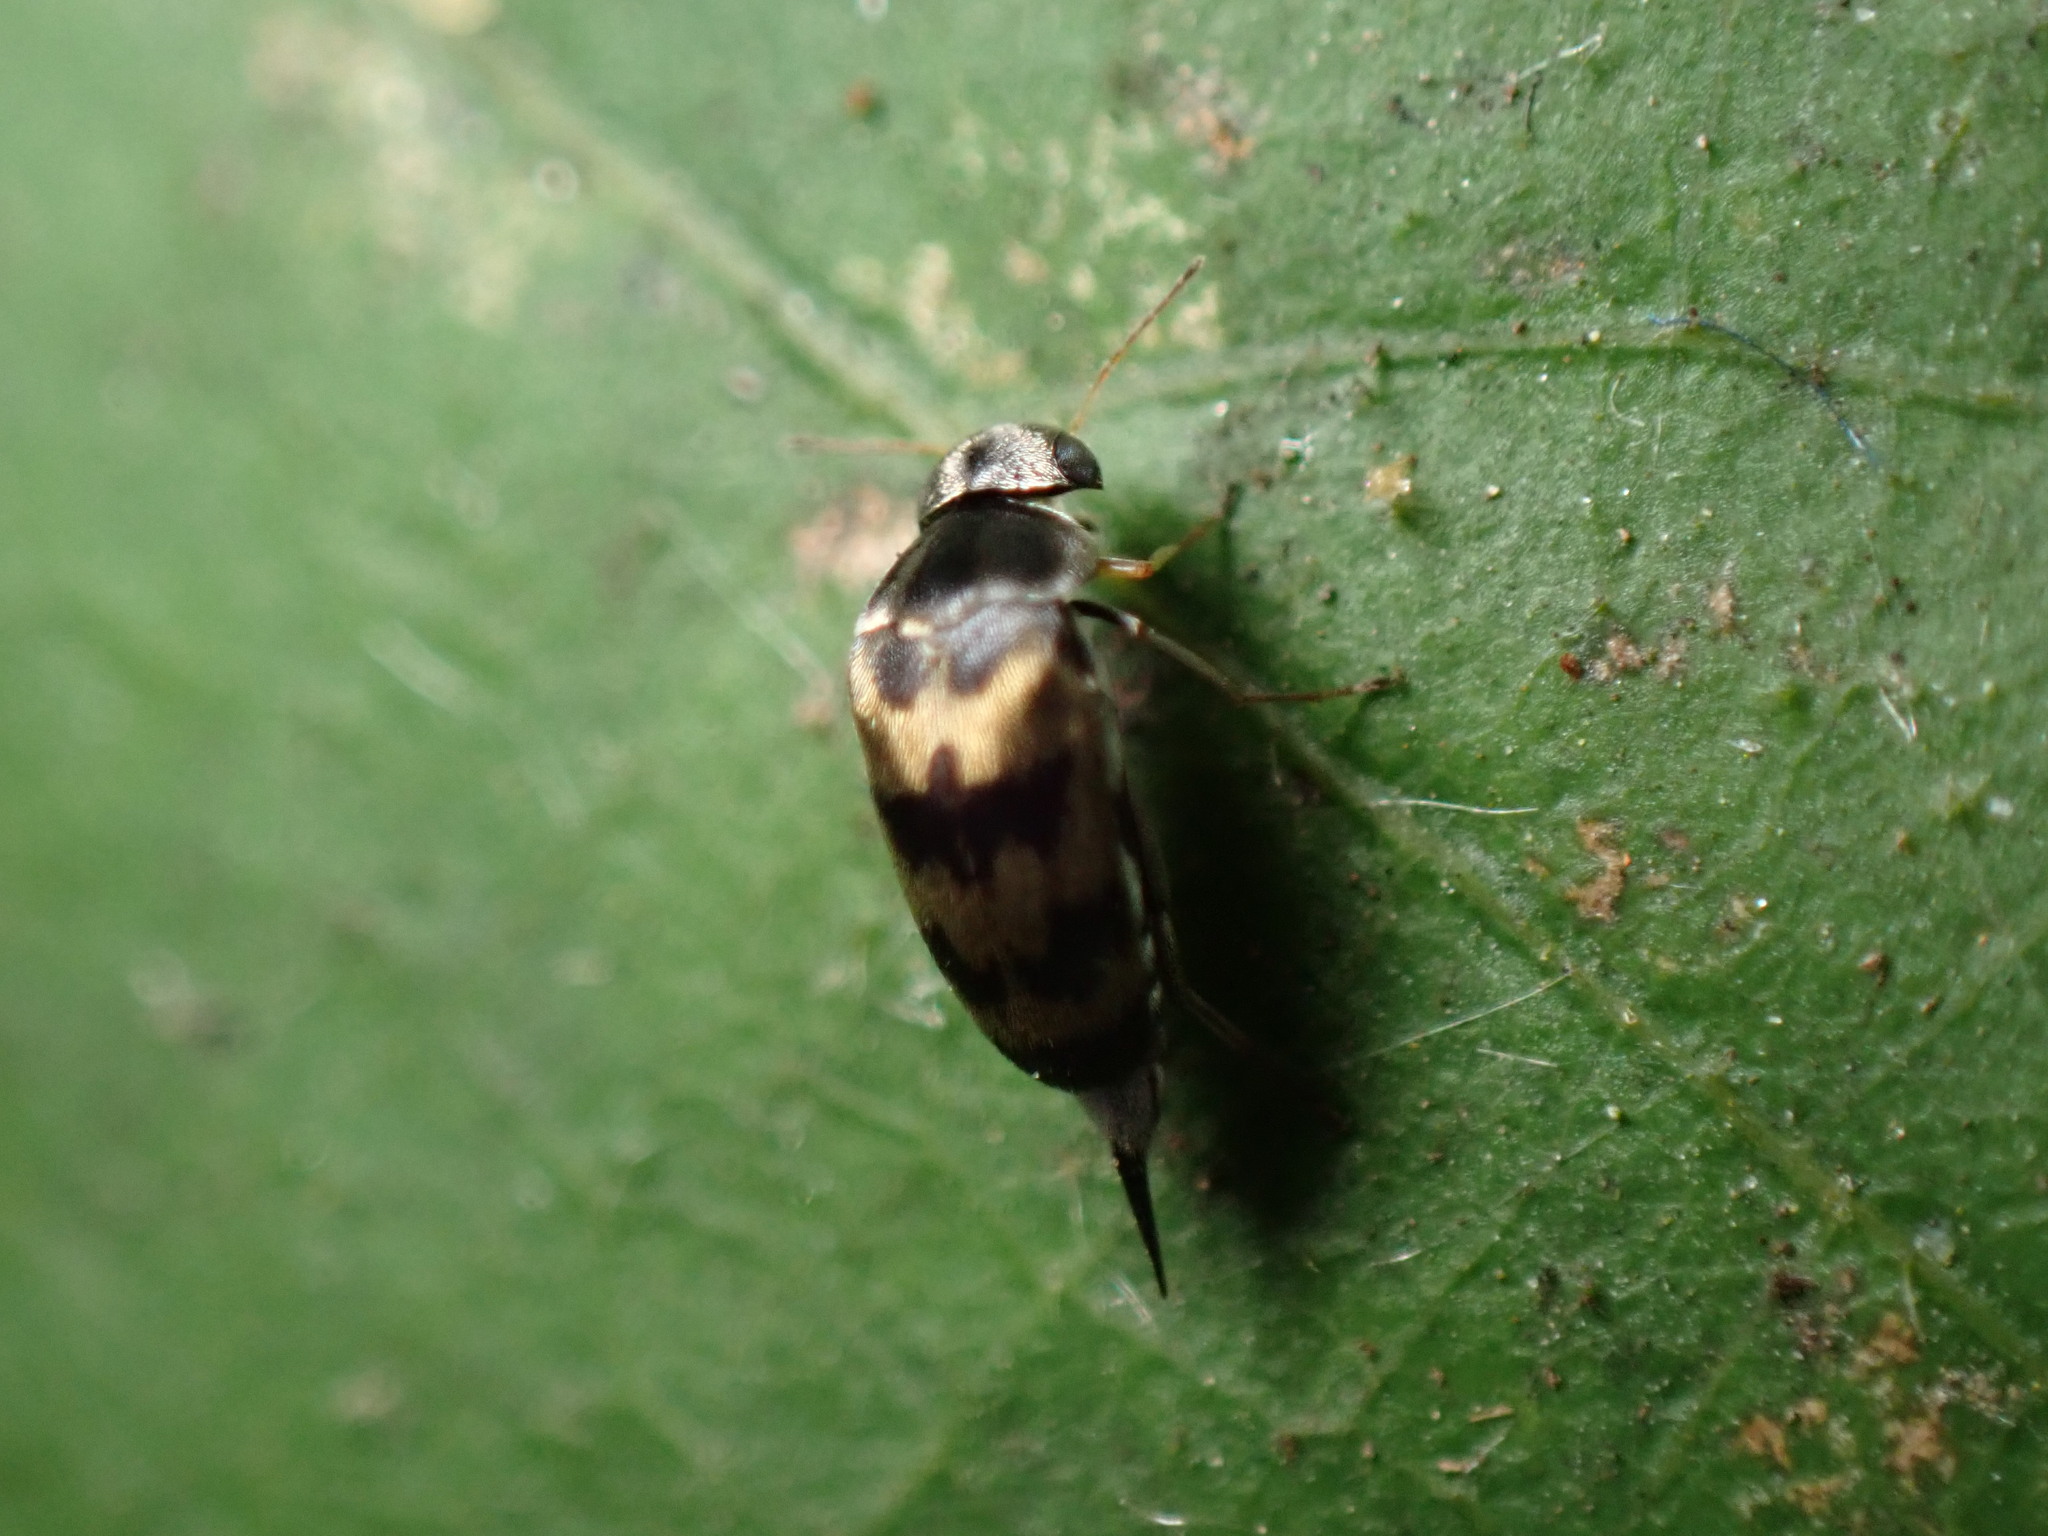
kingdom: Animalia
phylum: Arthropoda
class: Insecta
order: Coleoptera
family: Mordellidae
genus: Paramordellaria
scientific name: Paramordellaria triloba
